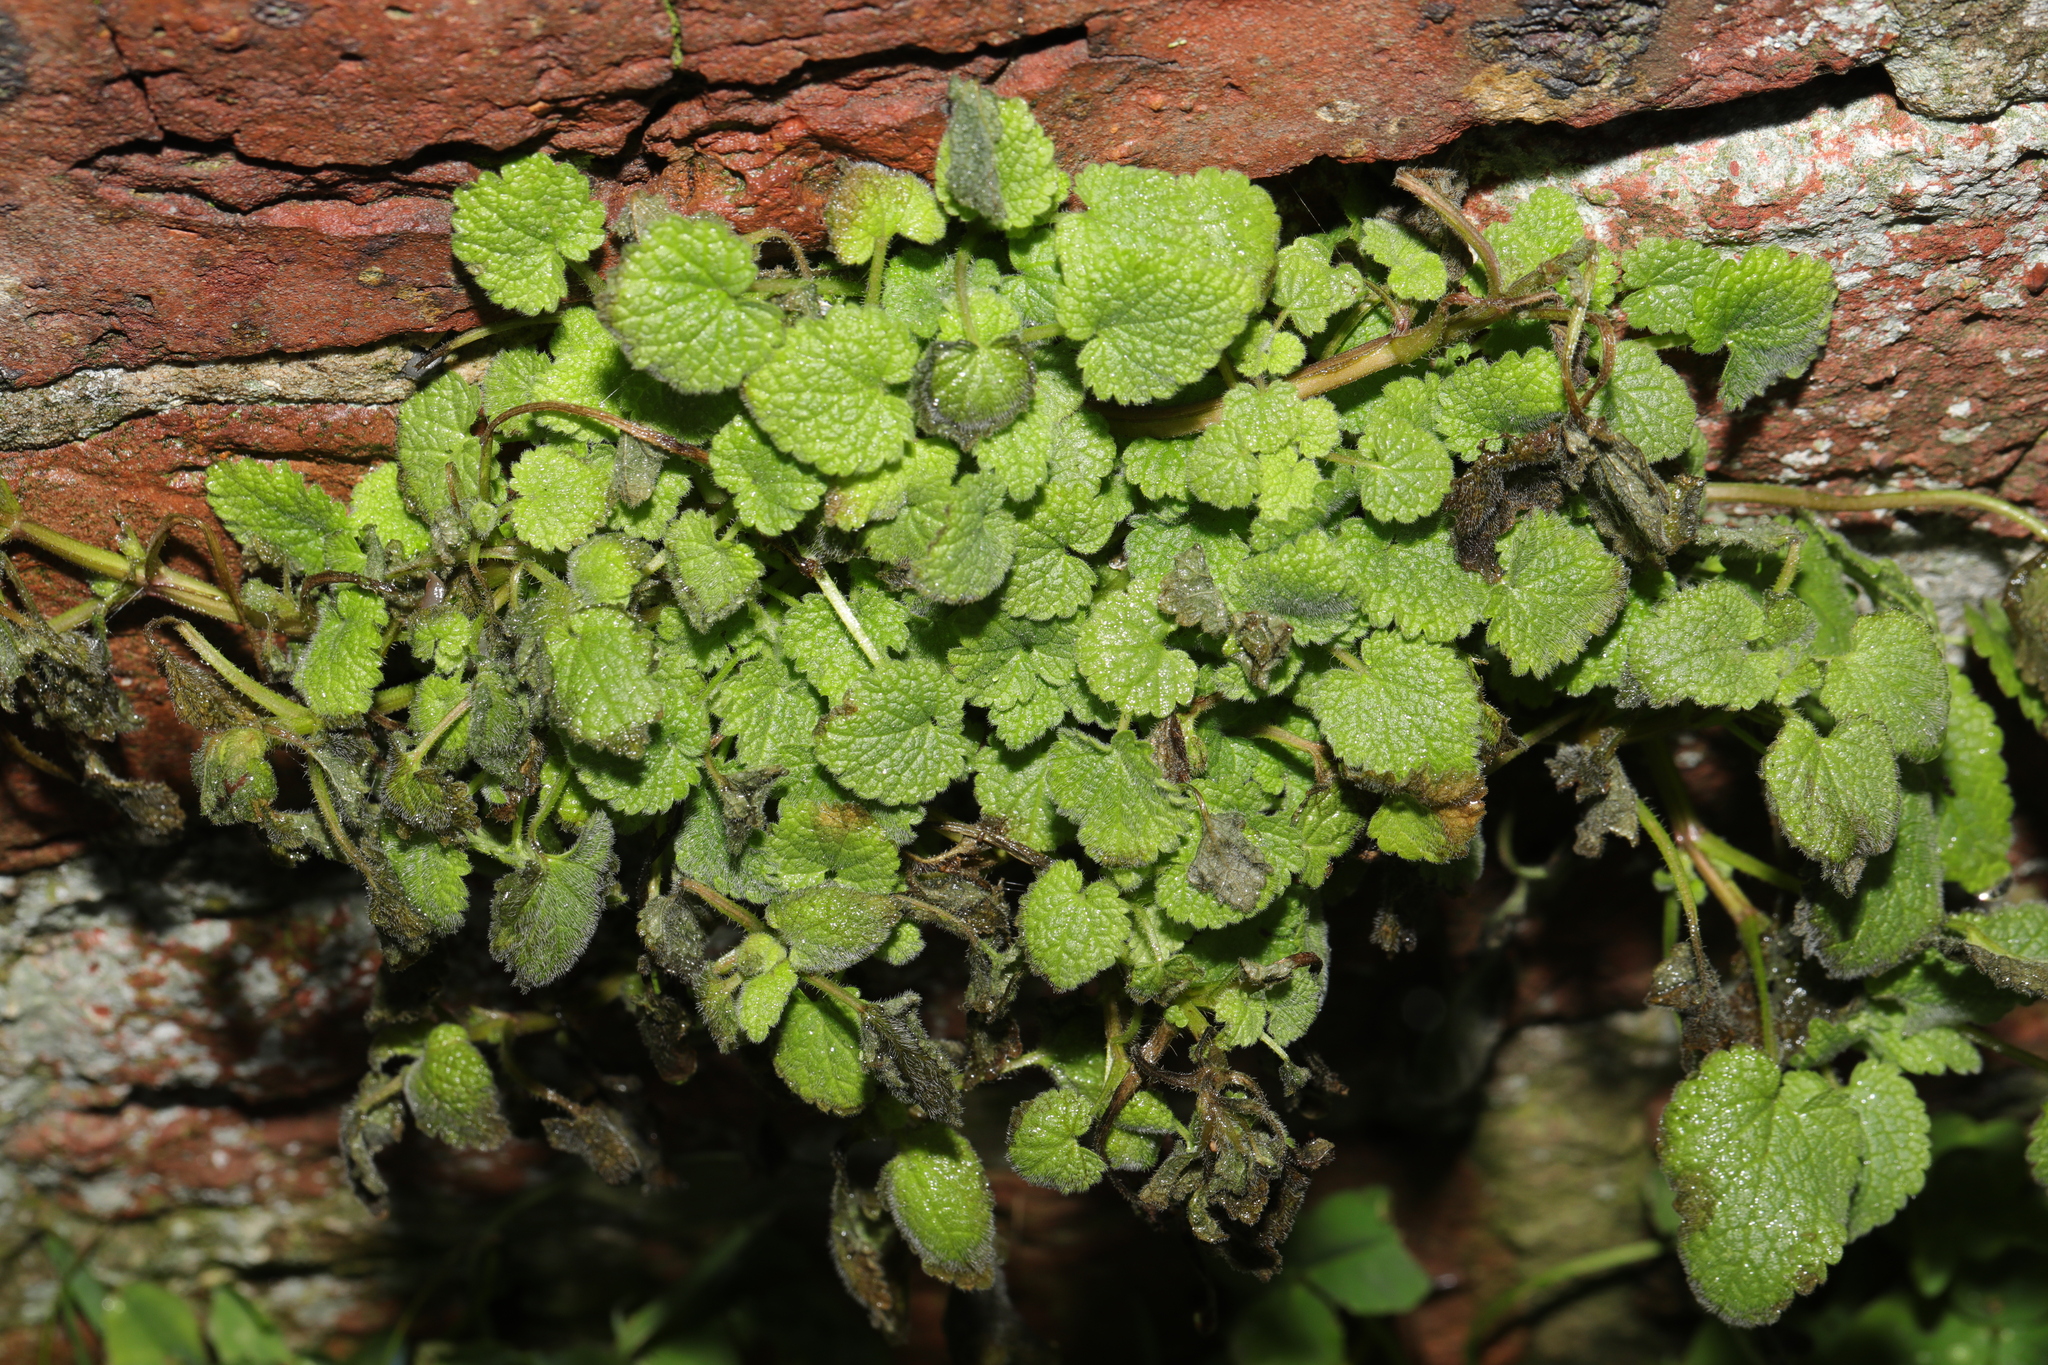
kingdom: Plantae
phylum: Tracheophyta
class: Magnoliopsida
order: Lamiales
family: Lamiaceae
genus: Lamium
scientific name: Lamium purpureum
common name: Red dead-nettle
